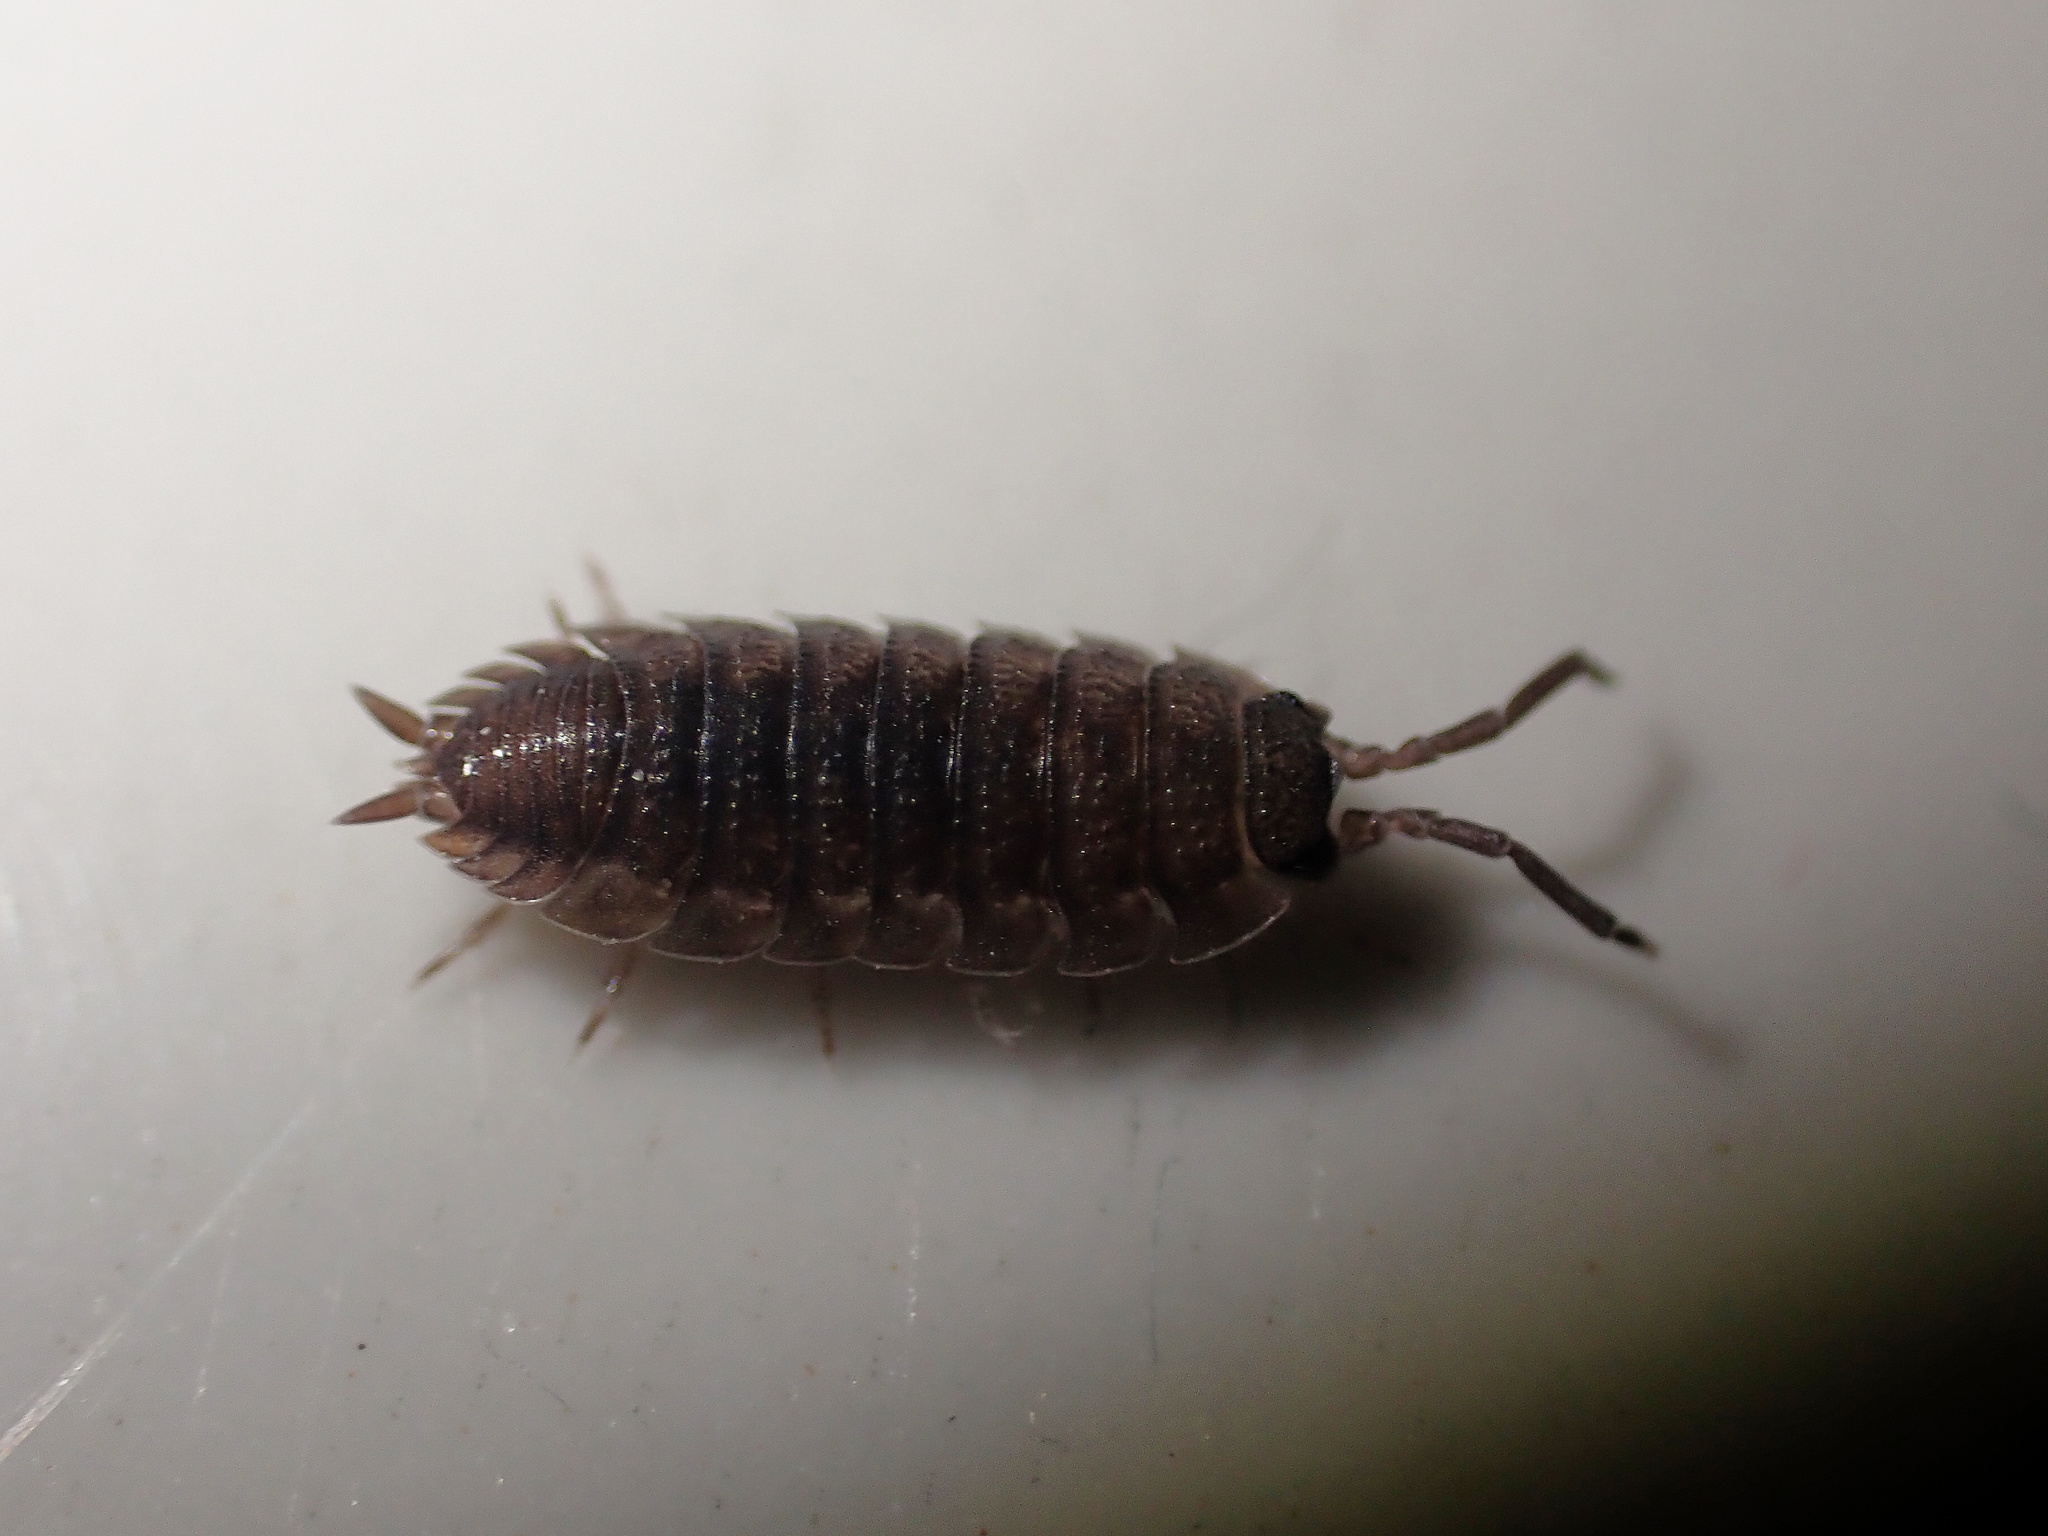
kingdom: Animalia
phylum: Arthropoda
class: Malacostraca
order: Isopoda
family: Porcellionidae
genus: Porcellio
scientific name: Porcellio scaber
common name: Common rough woodlouse
